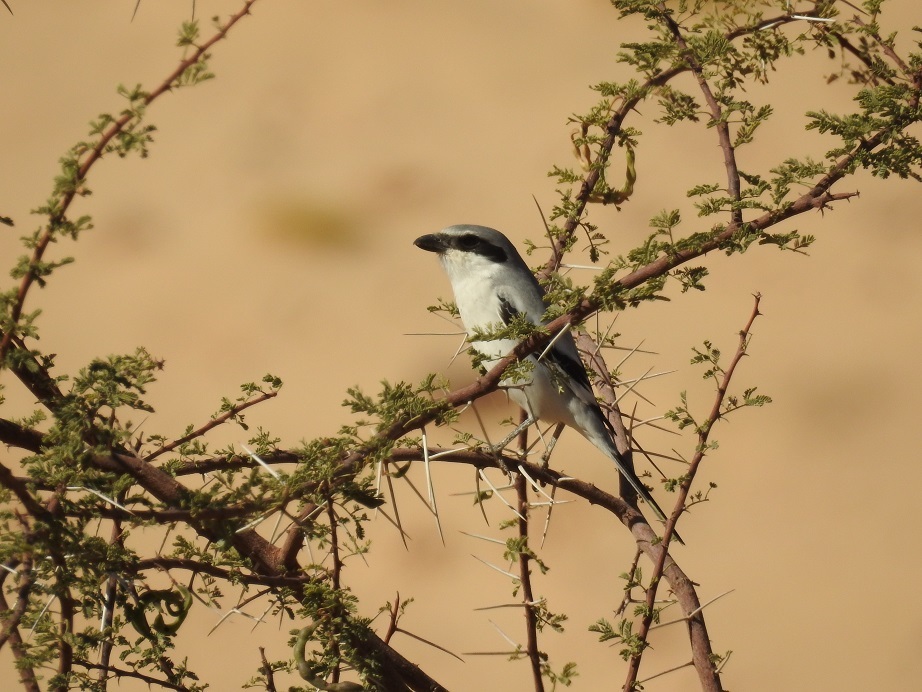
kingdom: Animalia
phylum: Chordata
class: Aves
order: Passeriformes
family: Laniidae
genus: Lanius
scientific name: Lanius excubitor
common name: Great grey shrike
